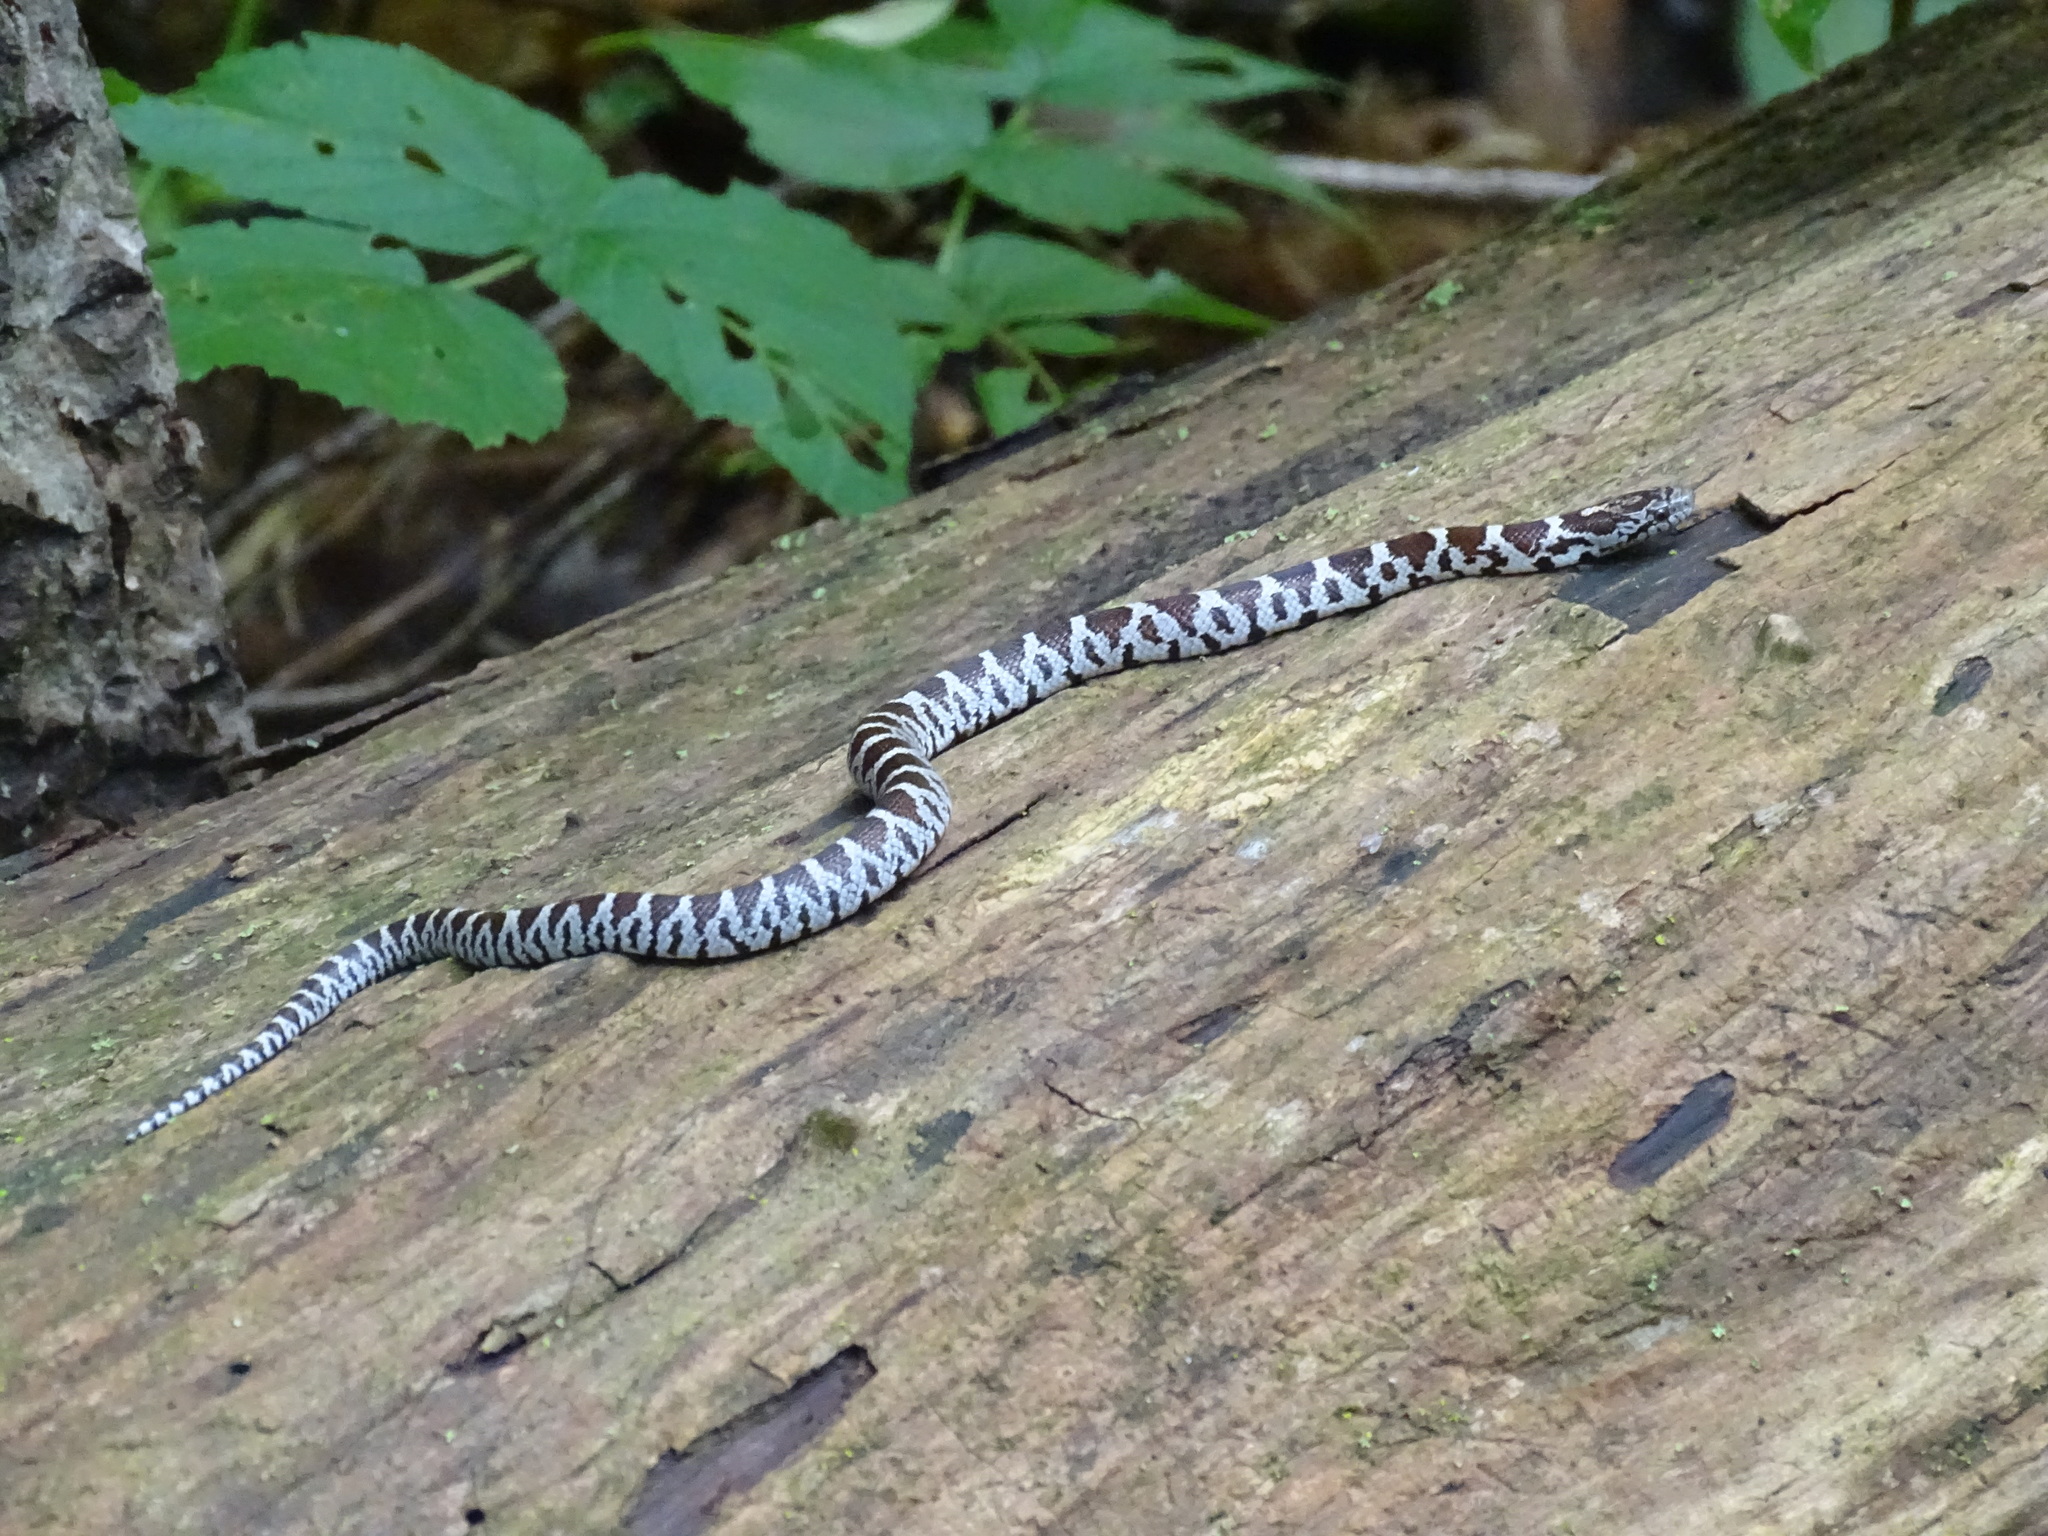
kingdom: Animalia
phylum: Chordata
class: Squamata
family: Colubridae
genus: Lampropeltis
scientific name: Lampropeltis triangulum
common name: Eastern milksnake
